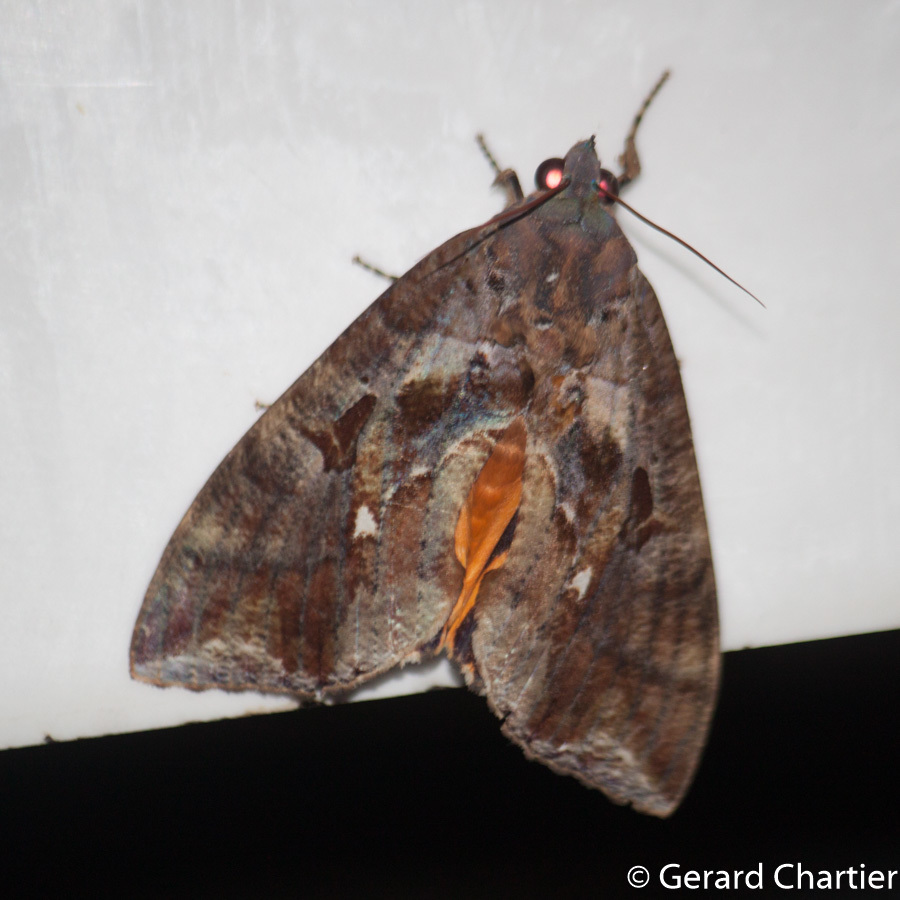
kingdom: Animalia
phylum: Arthropoda
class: Insecta
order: Lepidoptera
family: Erebidae
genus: Eudocima
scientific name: Eudocima phalonia
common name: Wasp
